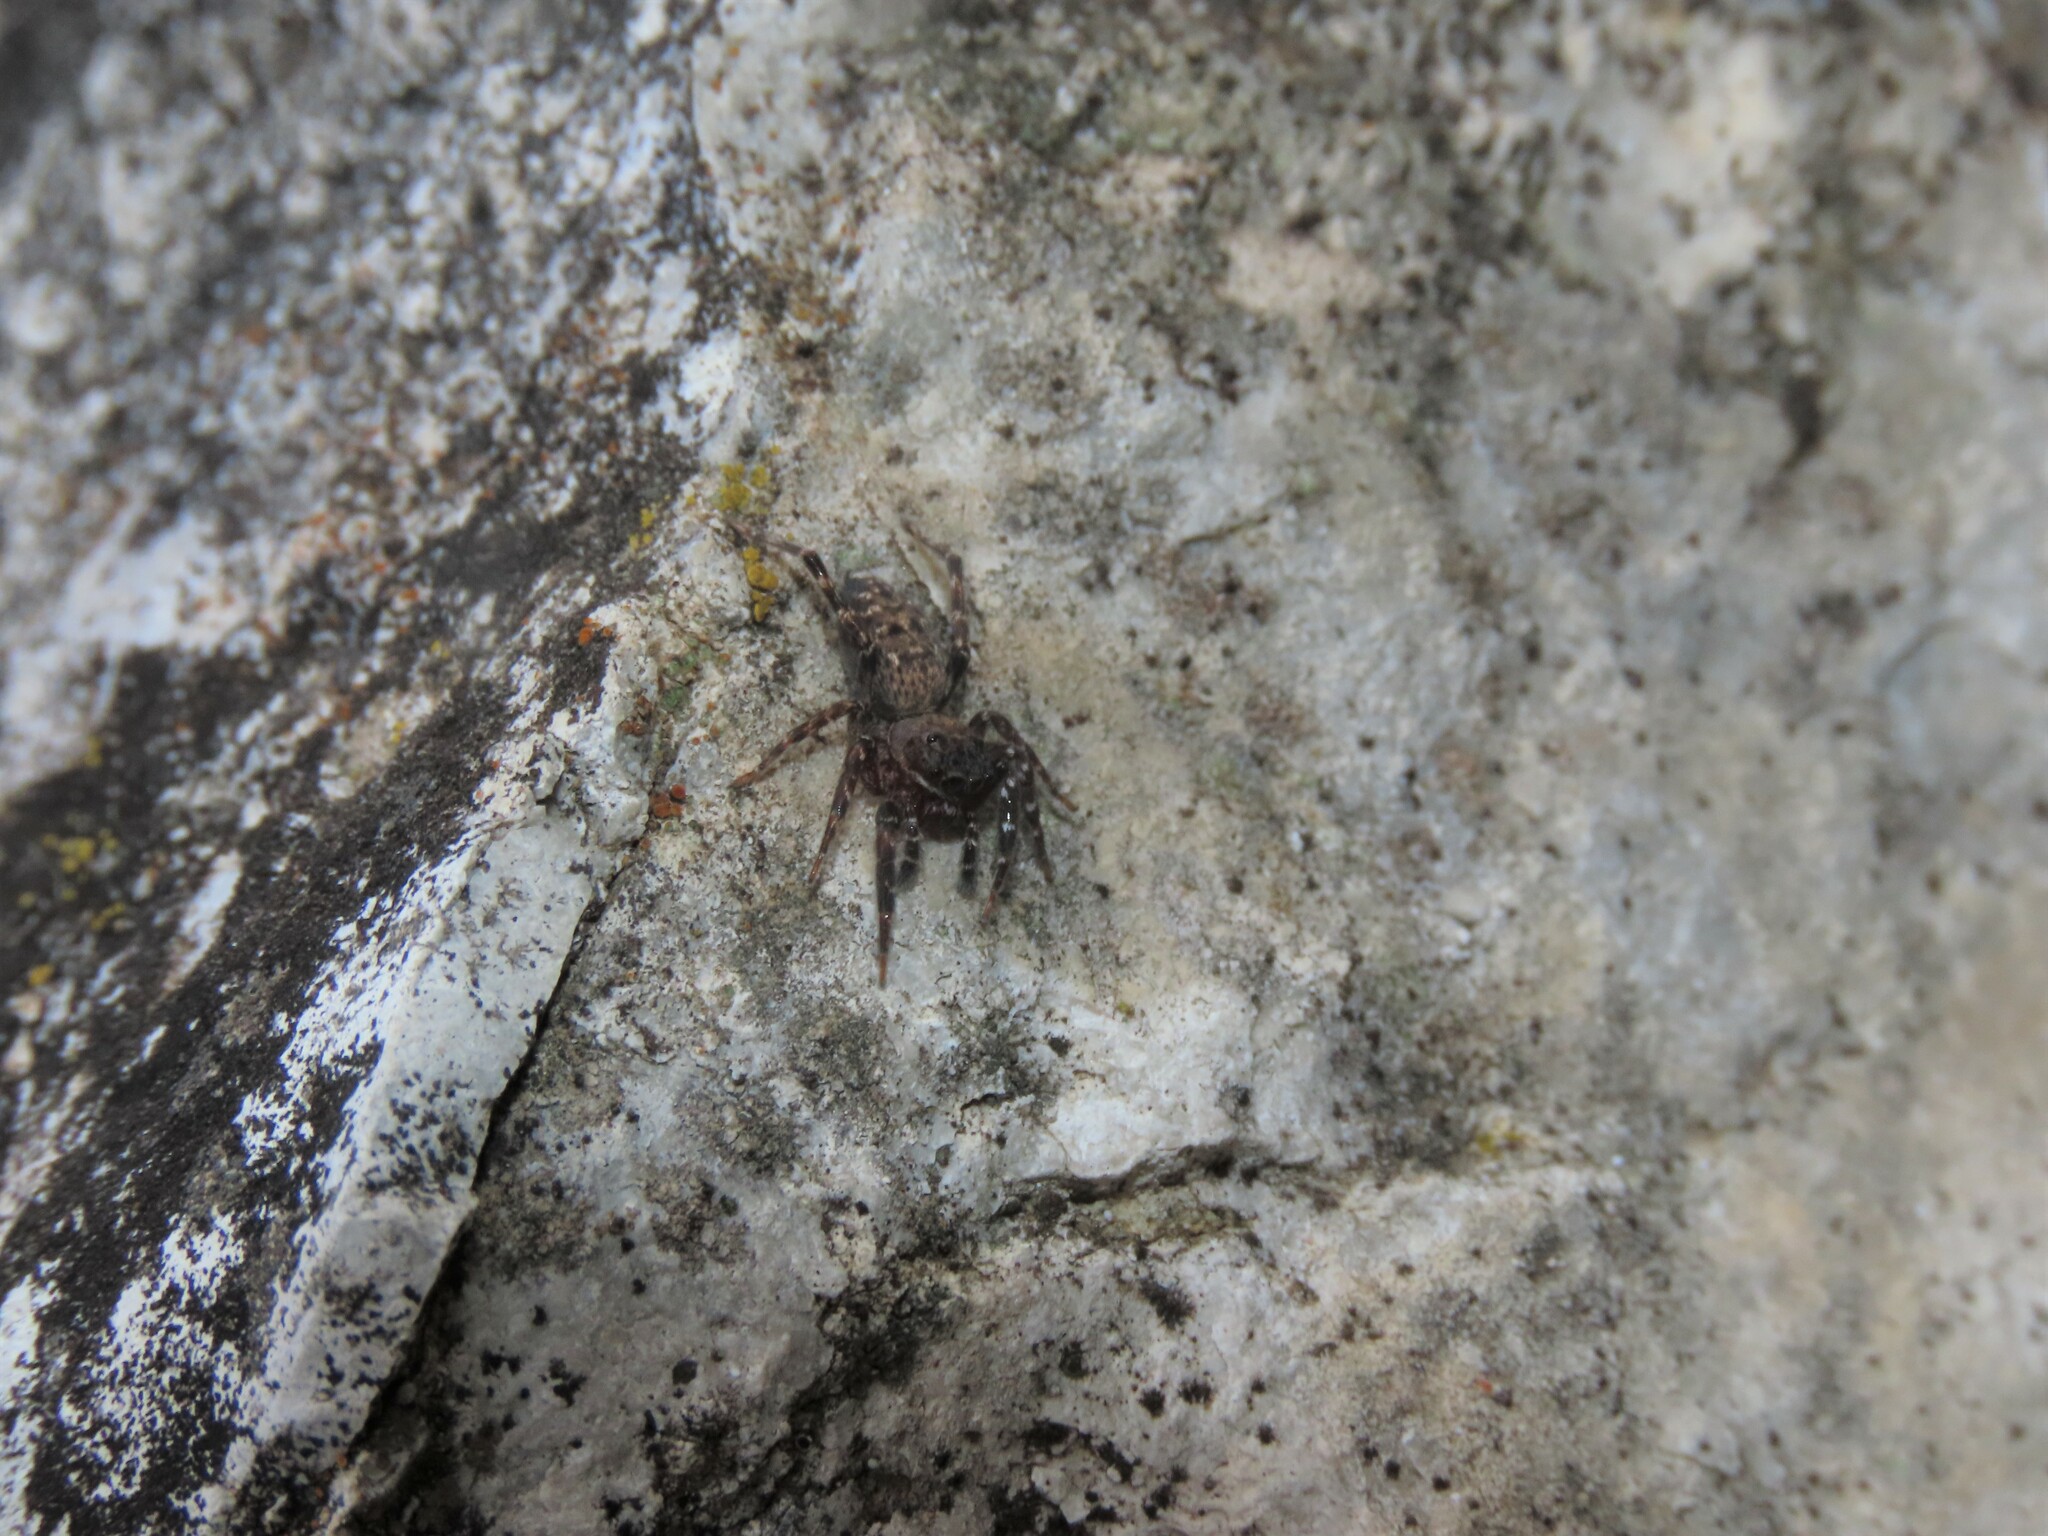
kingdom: Animalia
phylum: Arthropoda
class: Arachnida
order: Araneae
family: Salticidae
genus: Cyrba
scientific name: Cyrba algerina
